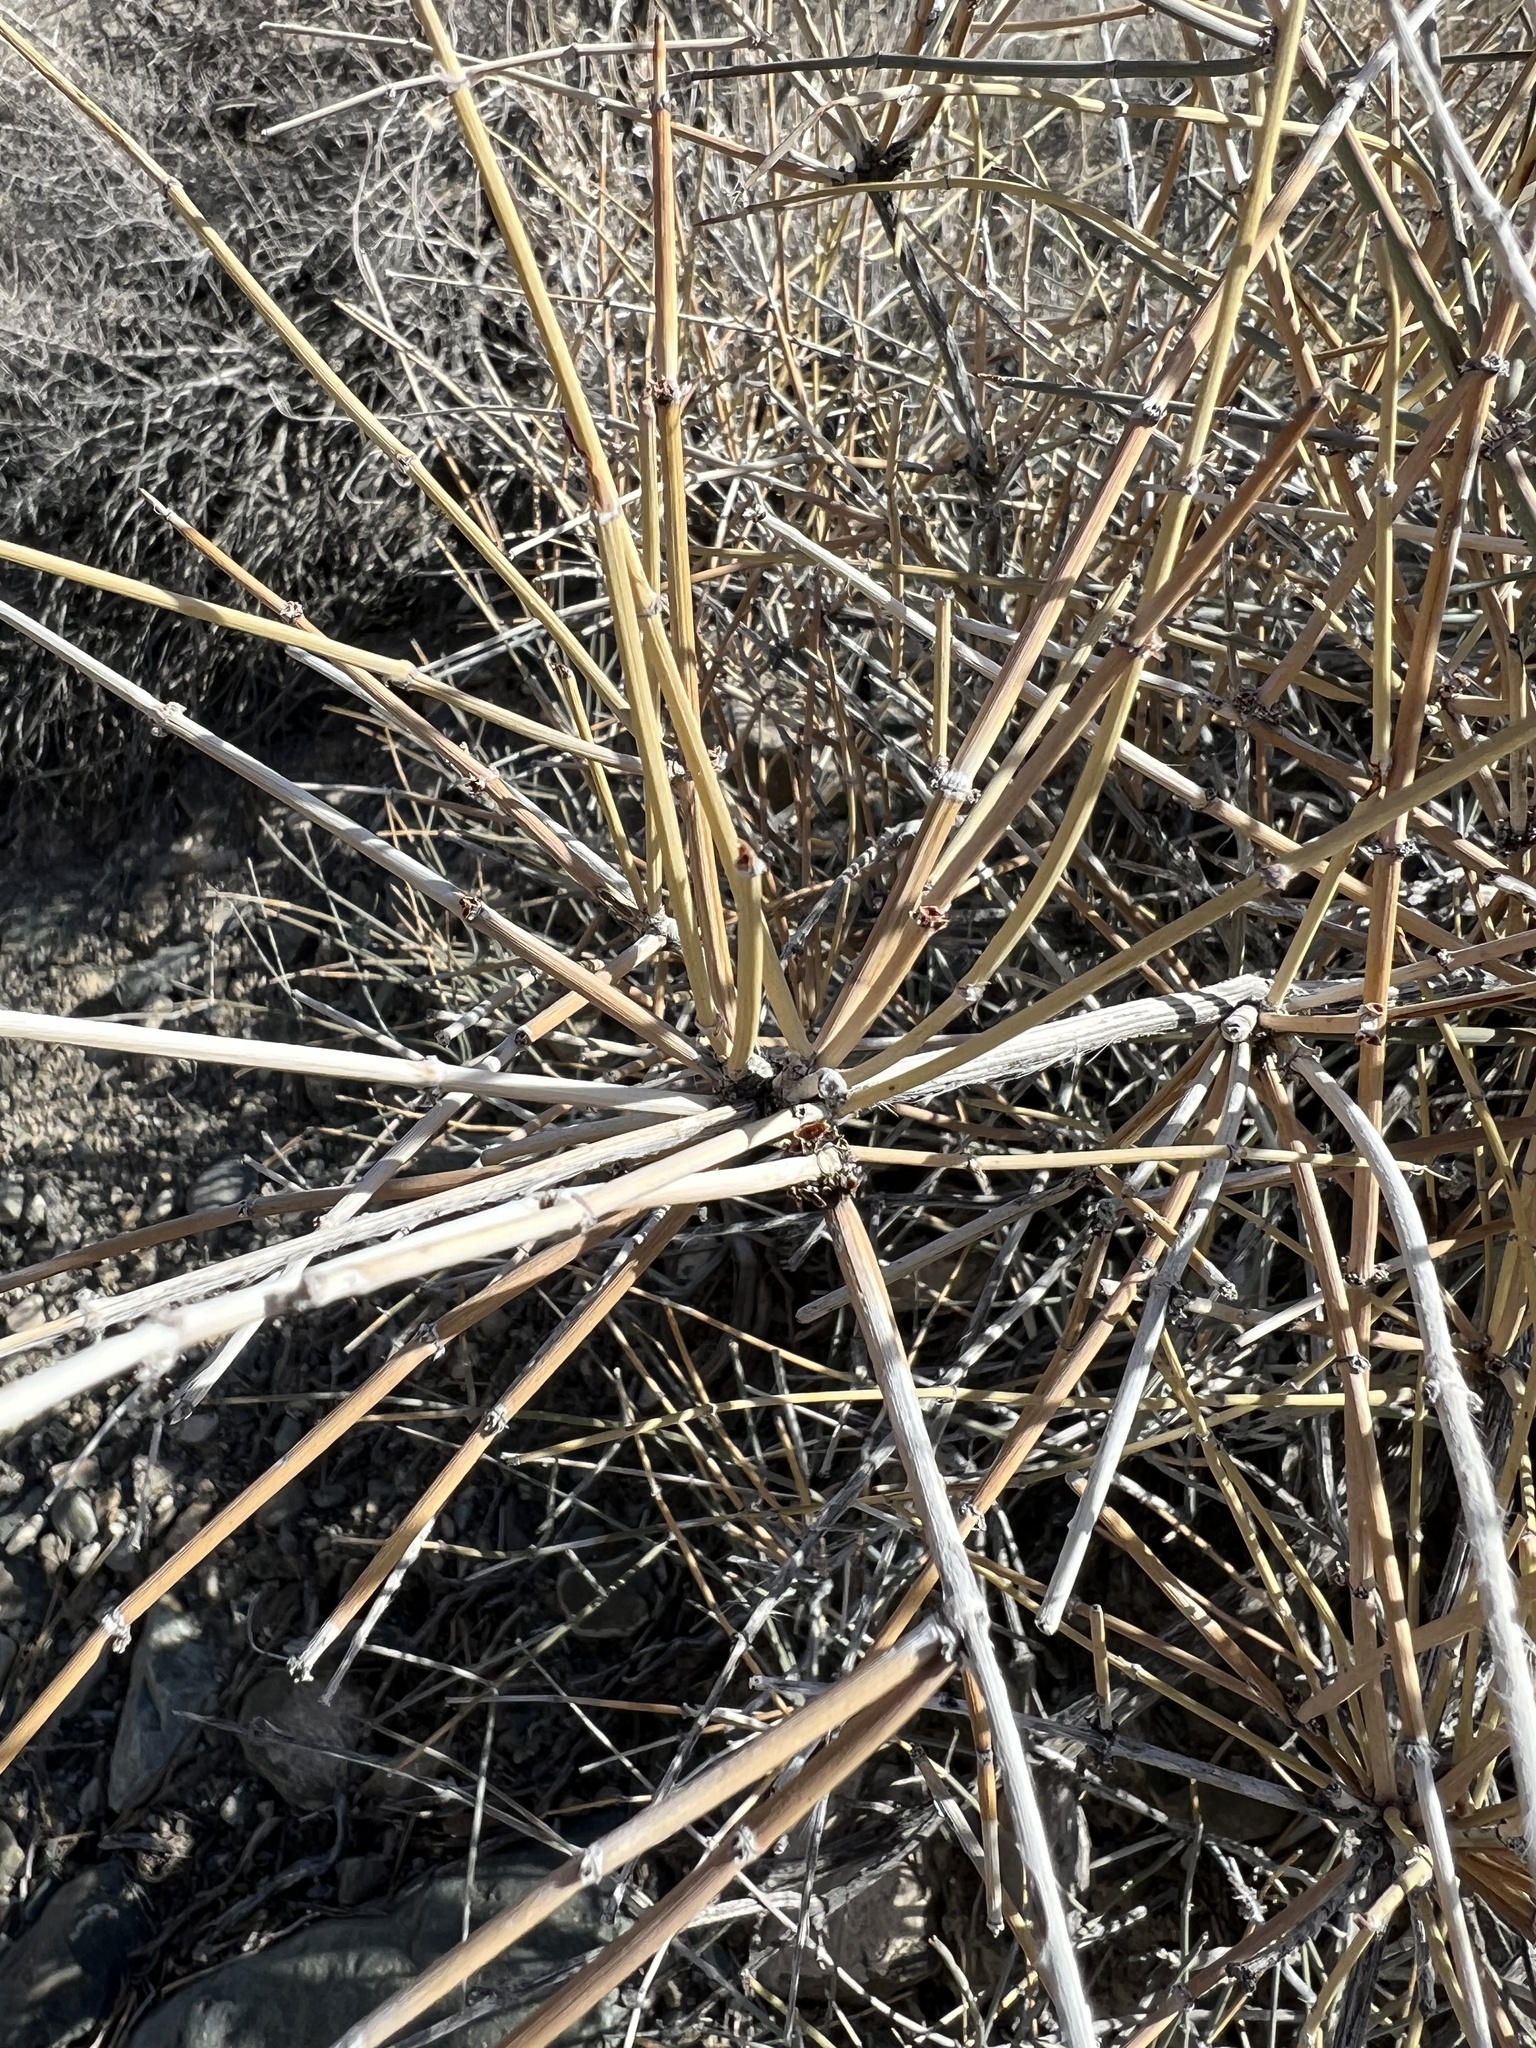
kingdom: Plantae
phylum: Tracheophyta
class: Gnetopsida
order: Ephedrales
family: Ephedraceae
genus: Ephedra
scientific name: Ephedra nevadensis
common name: Gray ephedra
